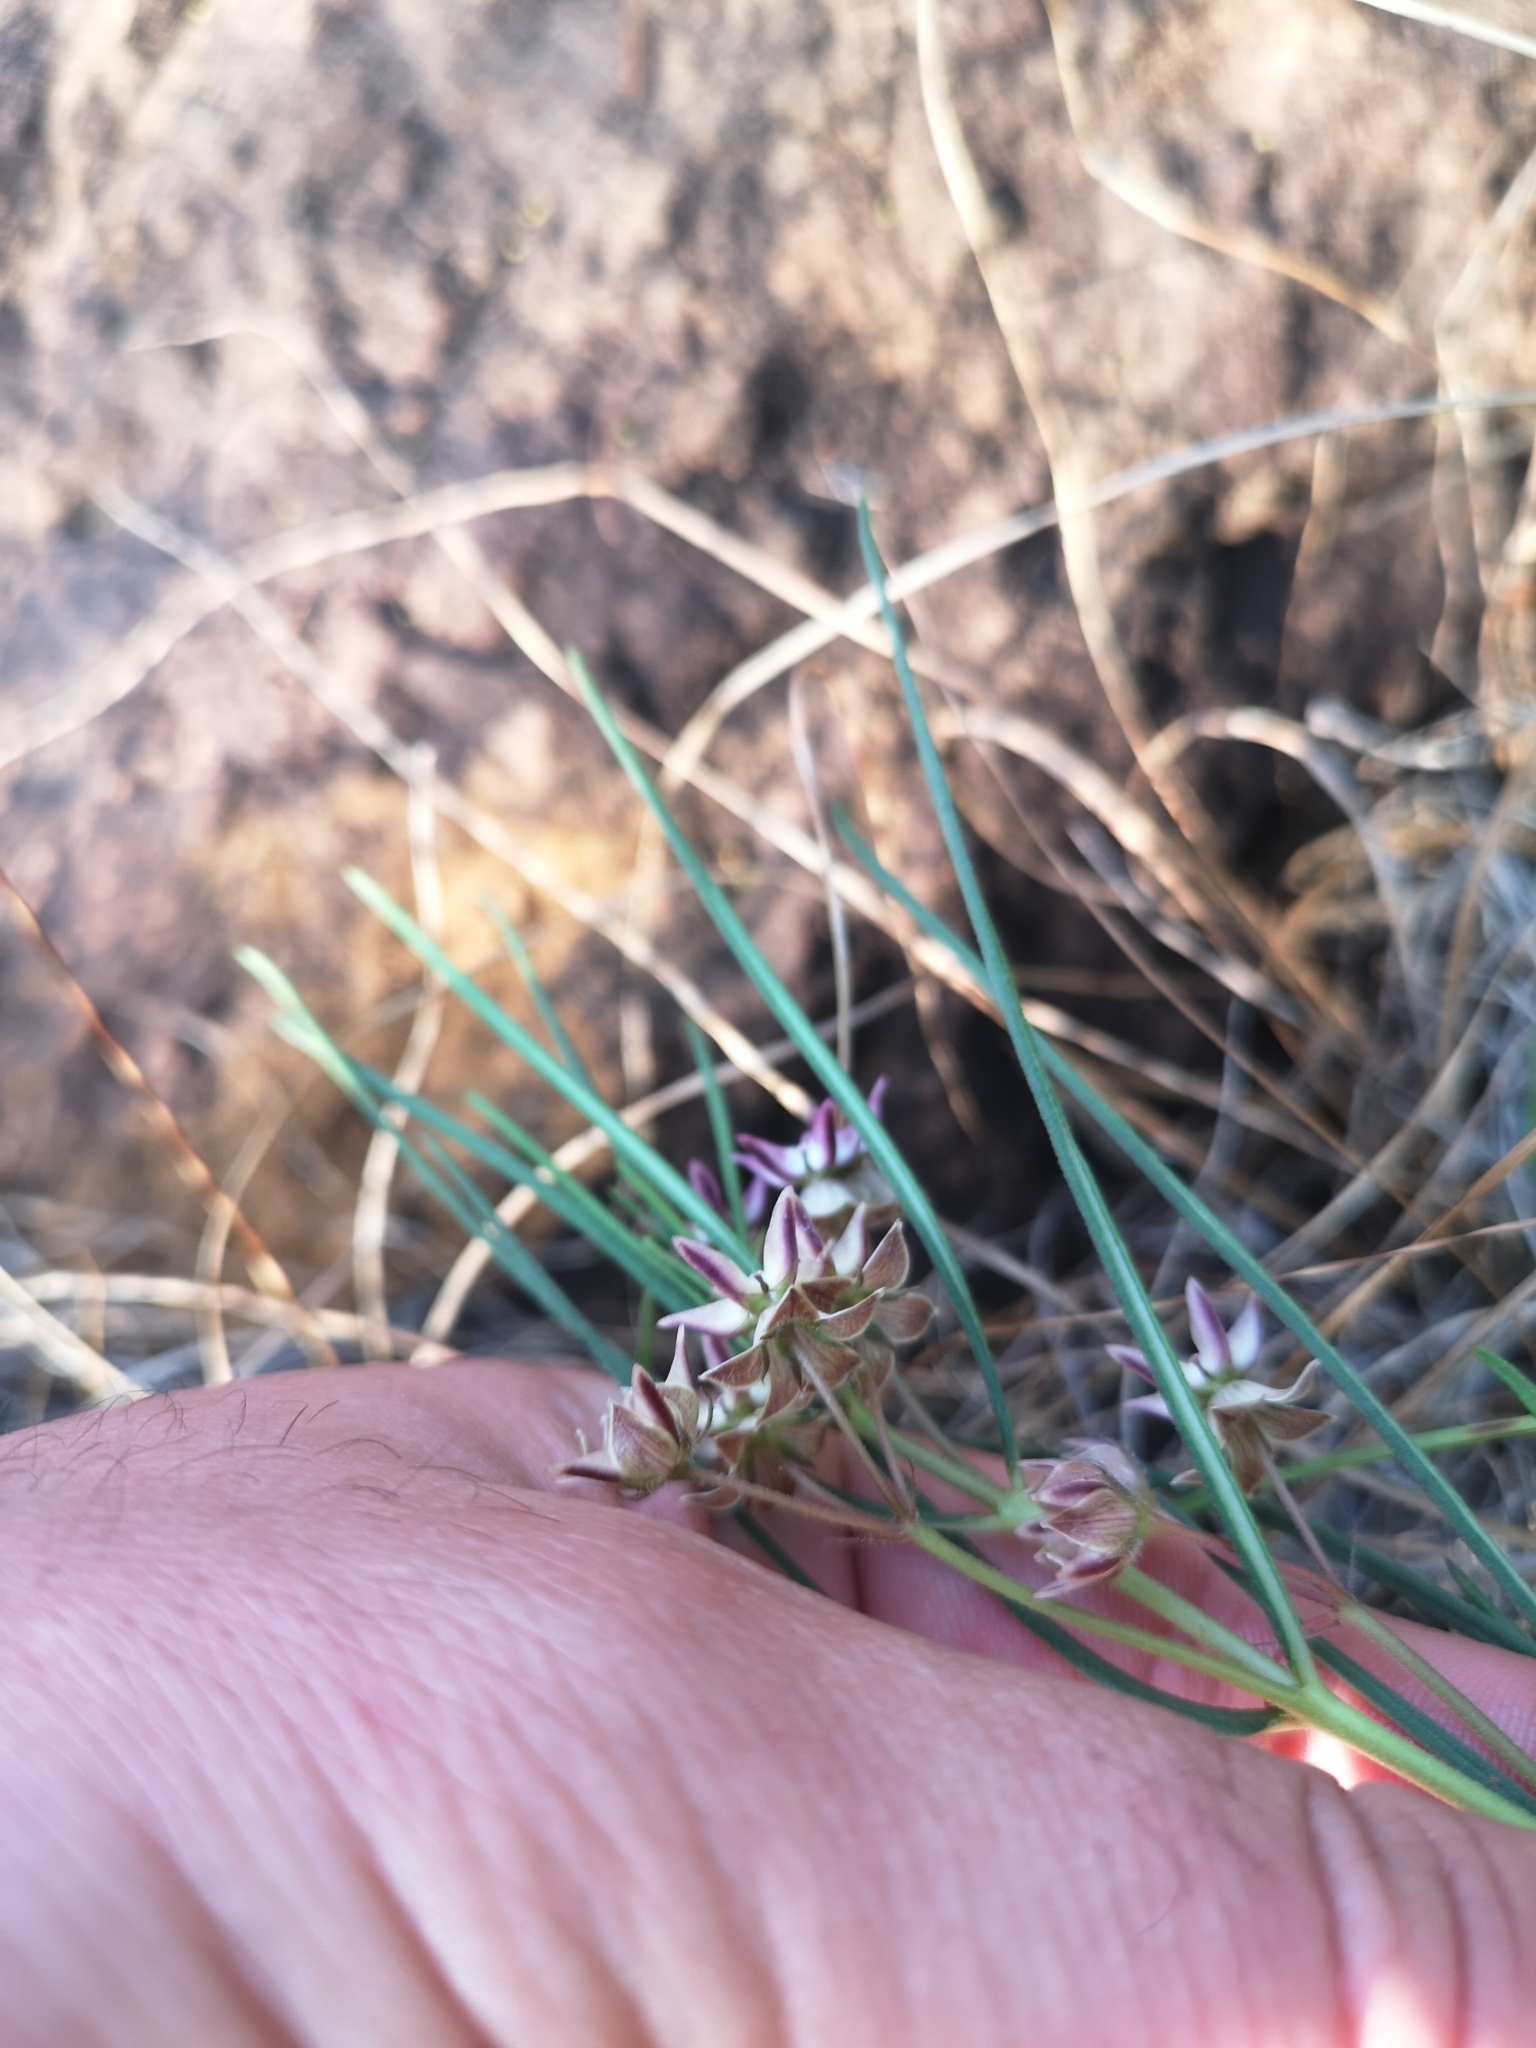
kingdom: Plantae
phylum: Tracheophyta
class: Magnoliopsida
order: Gentianales
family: Apocynaceae
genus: Asclepias
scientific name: Asclepias stellifera
